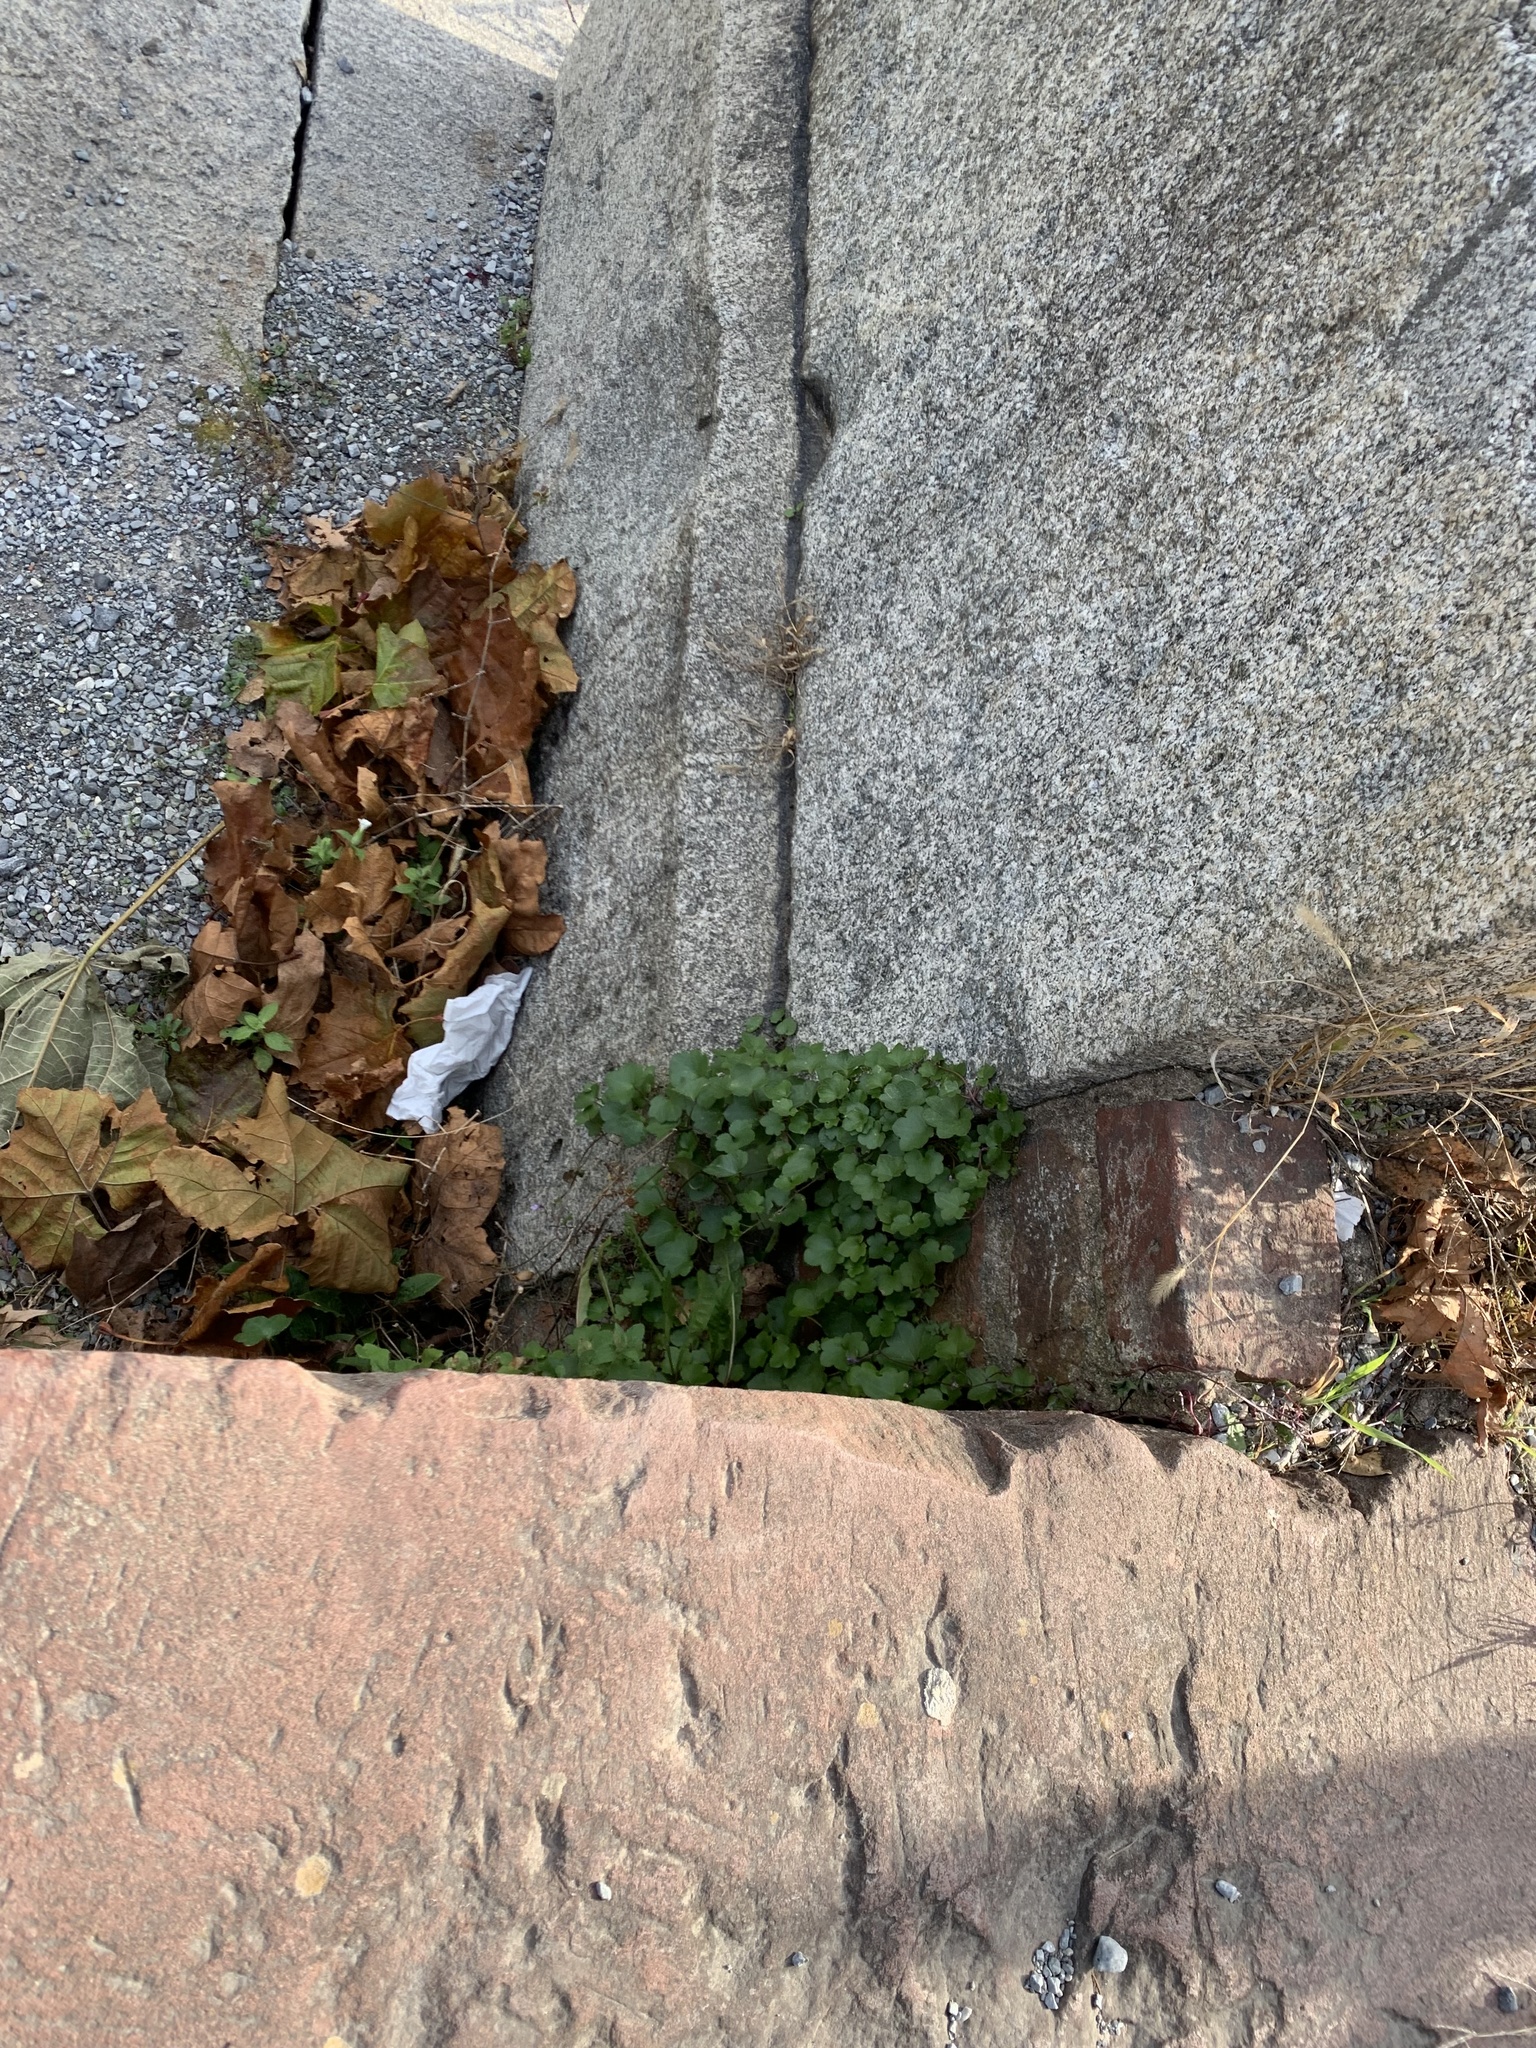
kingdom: Plantae
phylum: Tracheophyta
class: Magnoliopsida
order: Lamiales
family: Plantaginaceae
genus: Cymbalaria
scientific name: Cymbalaria muralis
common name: Ivy-leaved toadflax
